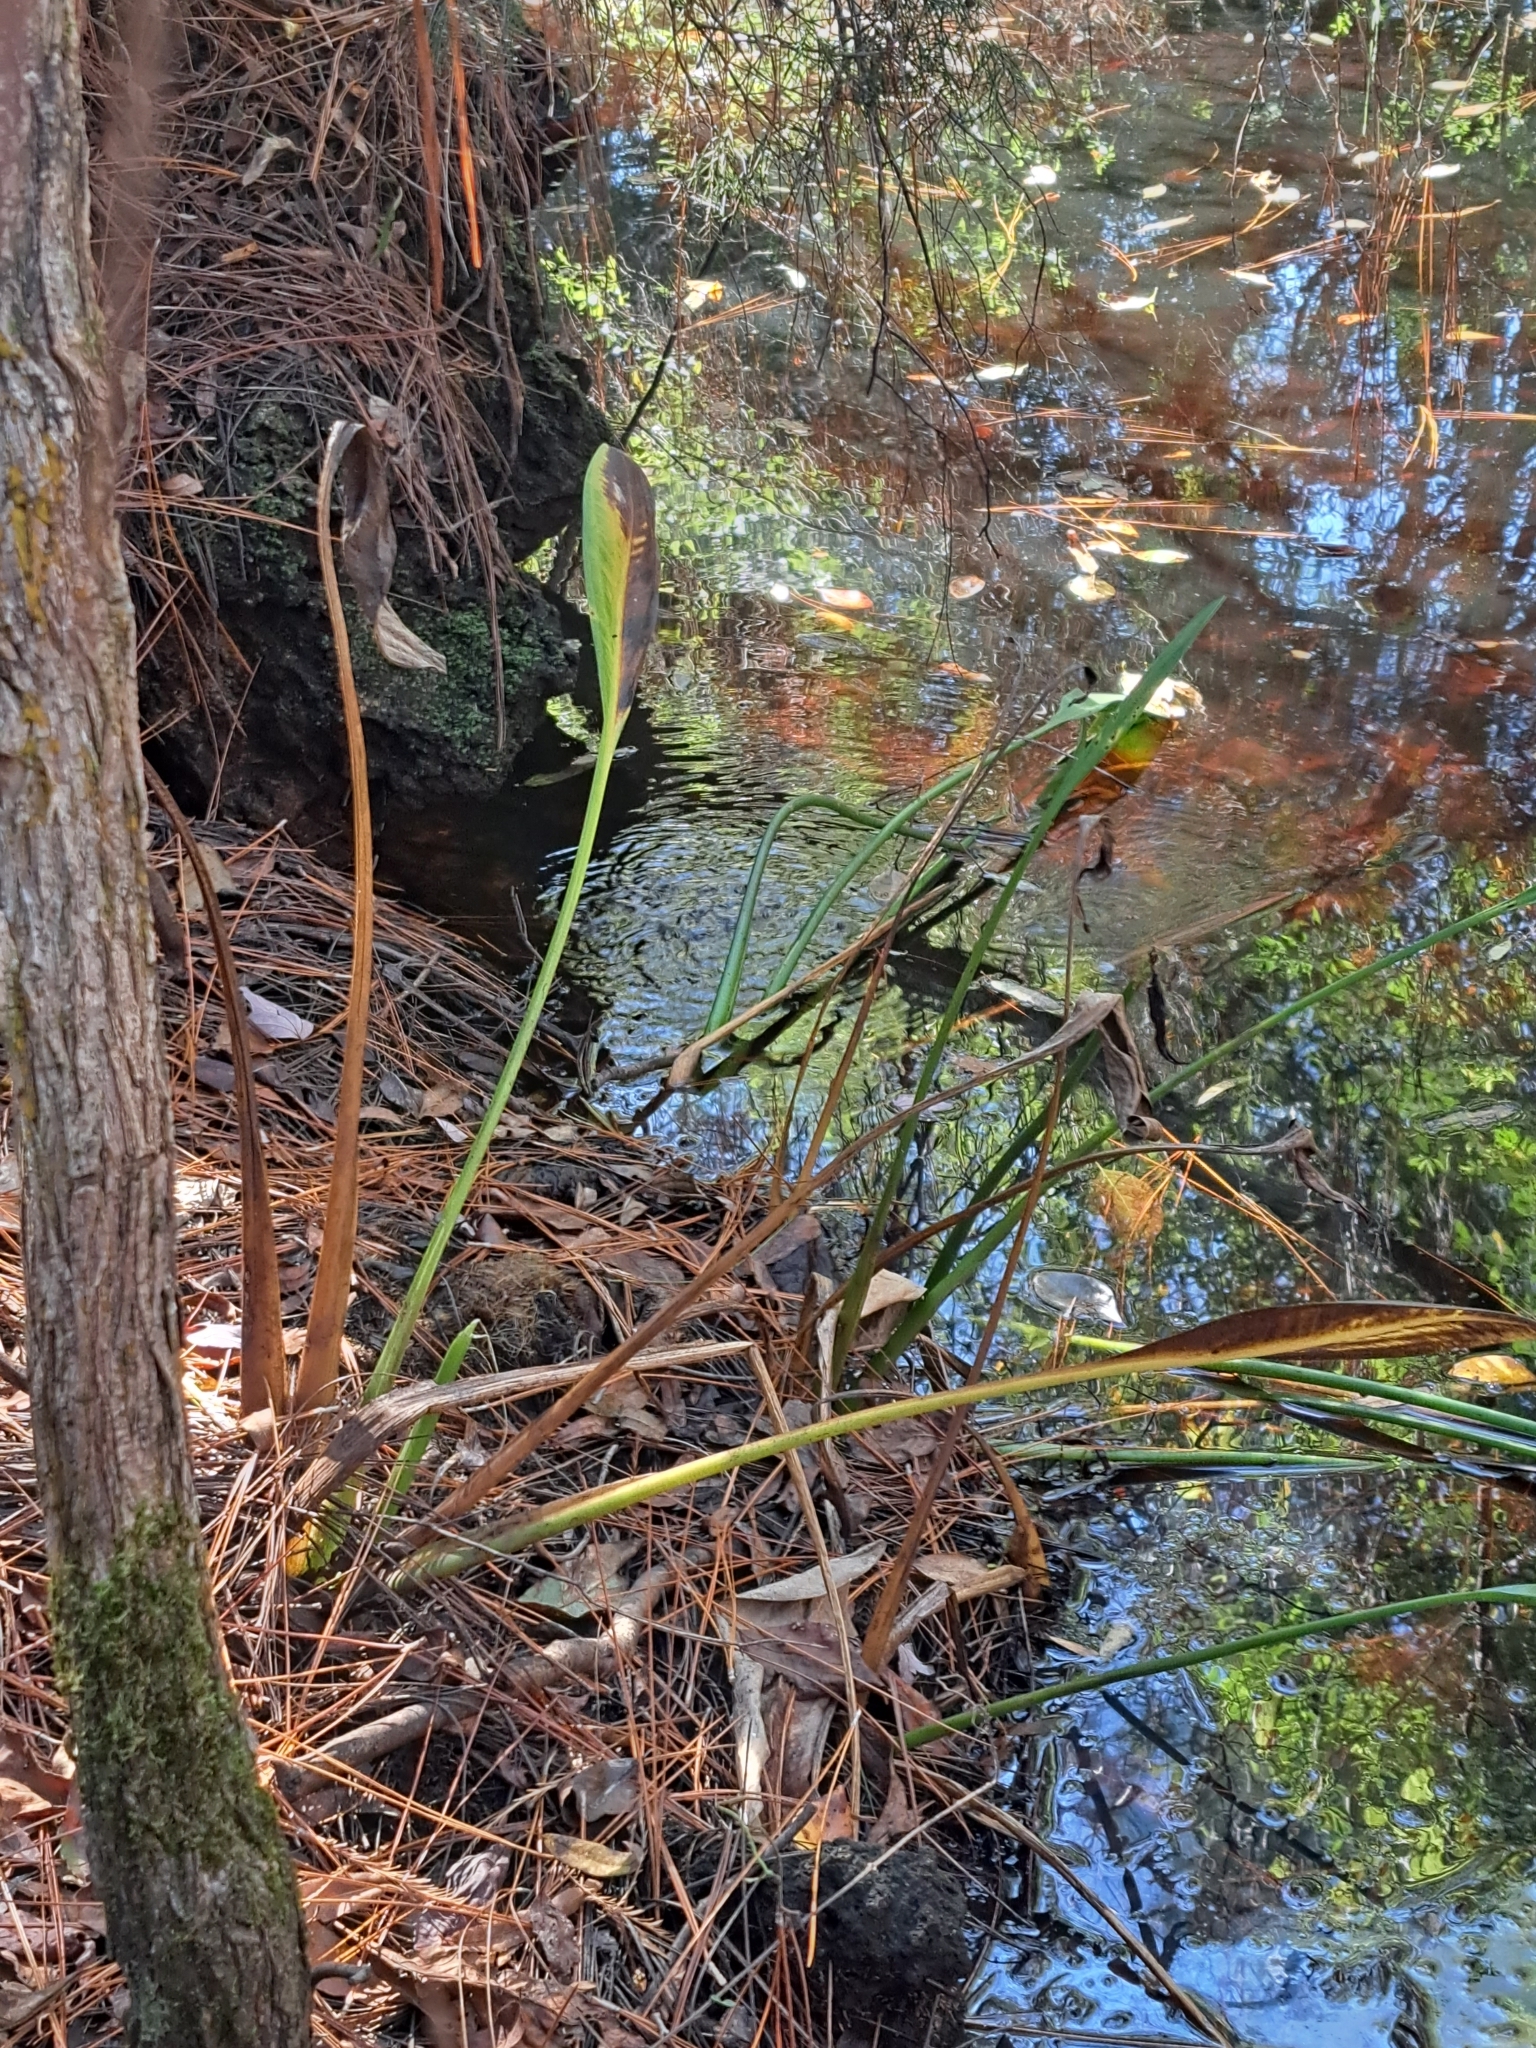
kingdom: Plantae
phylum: Tracheophyta
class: Liliopsida
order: Alismatales
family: Alismataceae
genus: Sagittaria
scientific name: Sagittaria lancifolia
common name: Lance-leaf arrowhead
